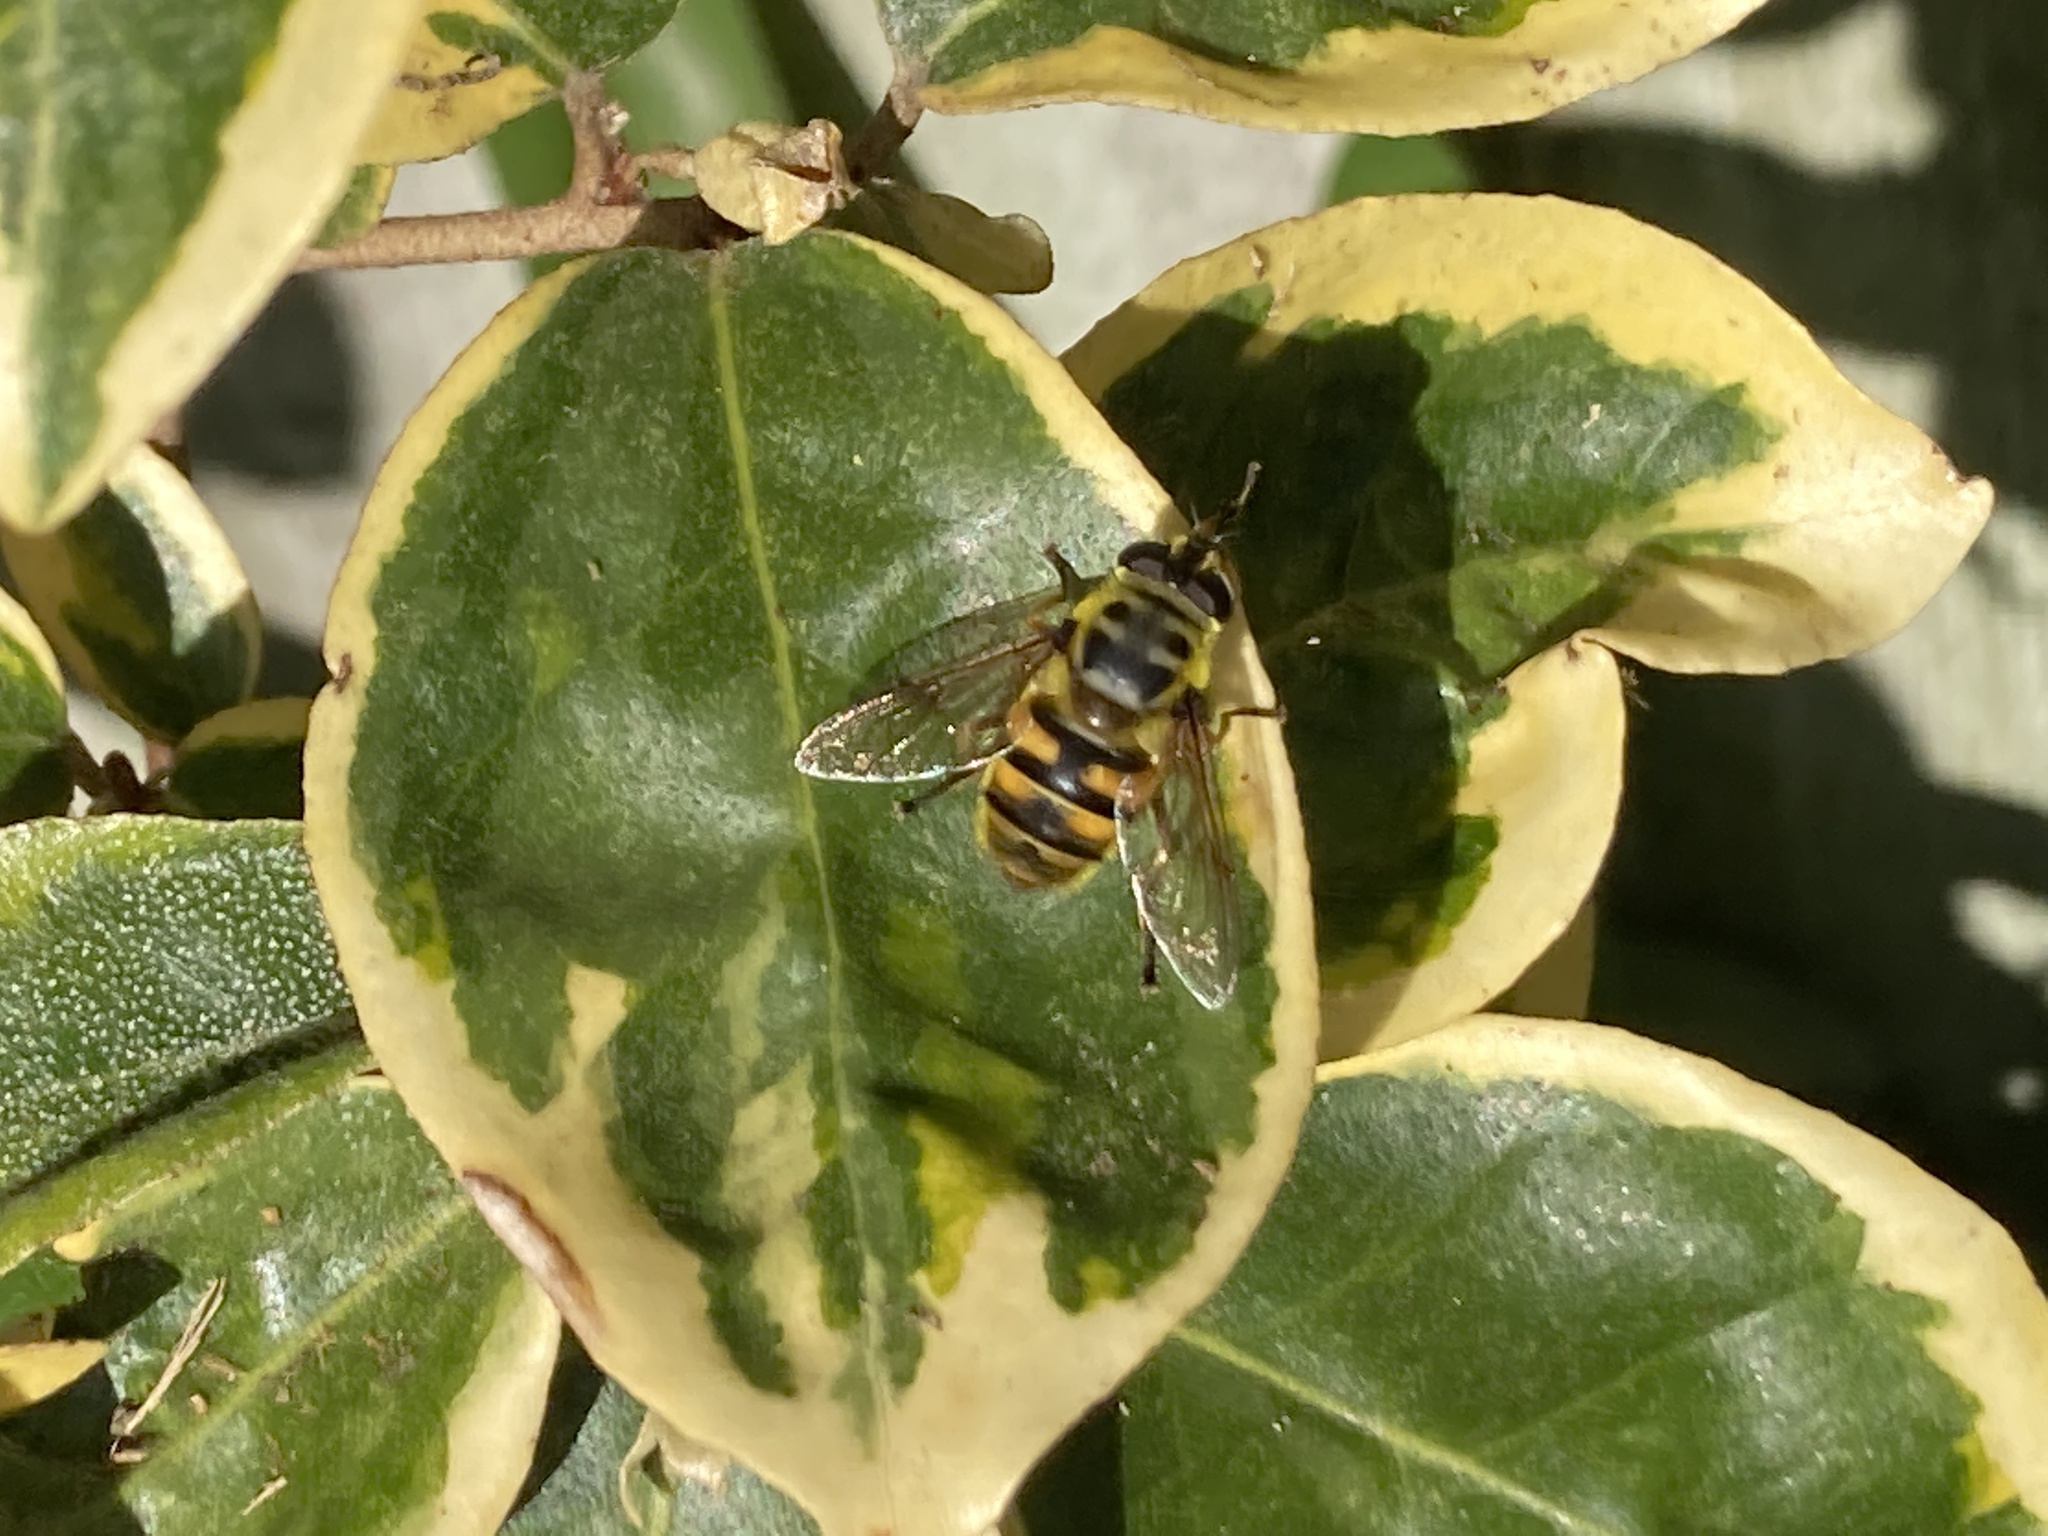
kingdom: Animalia
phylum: Arthropoda
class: Insecta
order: Diptera
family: Syrphidae
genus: Myathropa
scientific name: Myathropa florea
